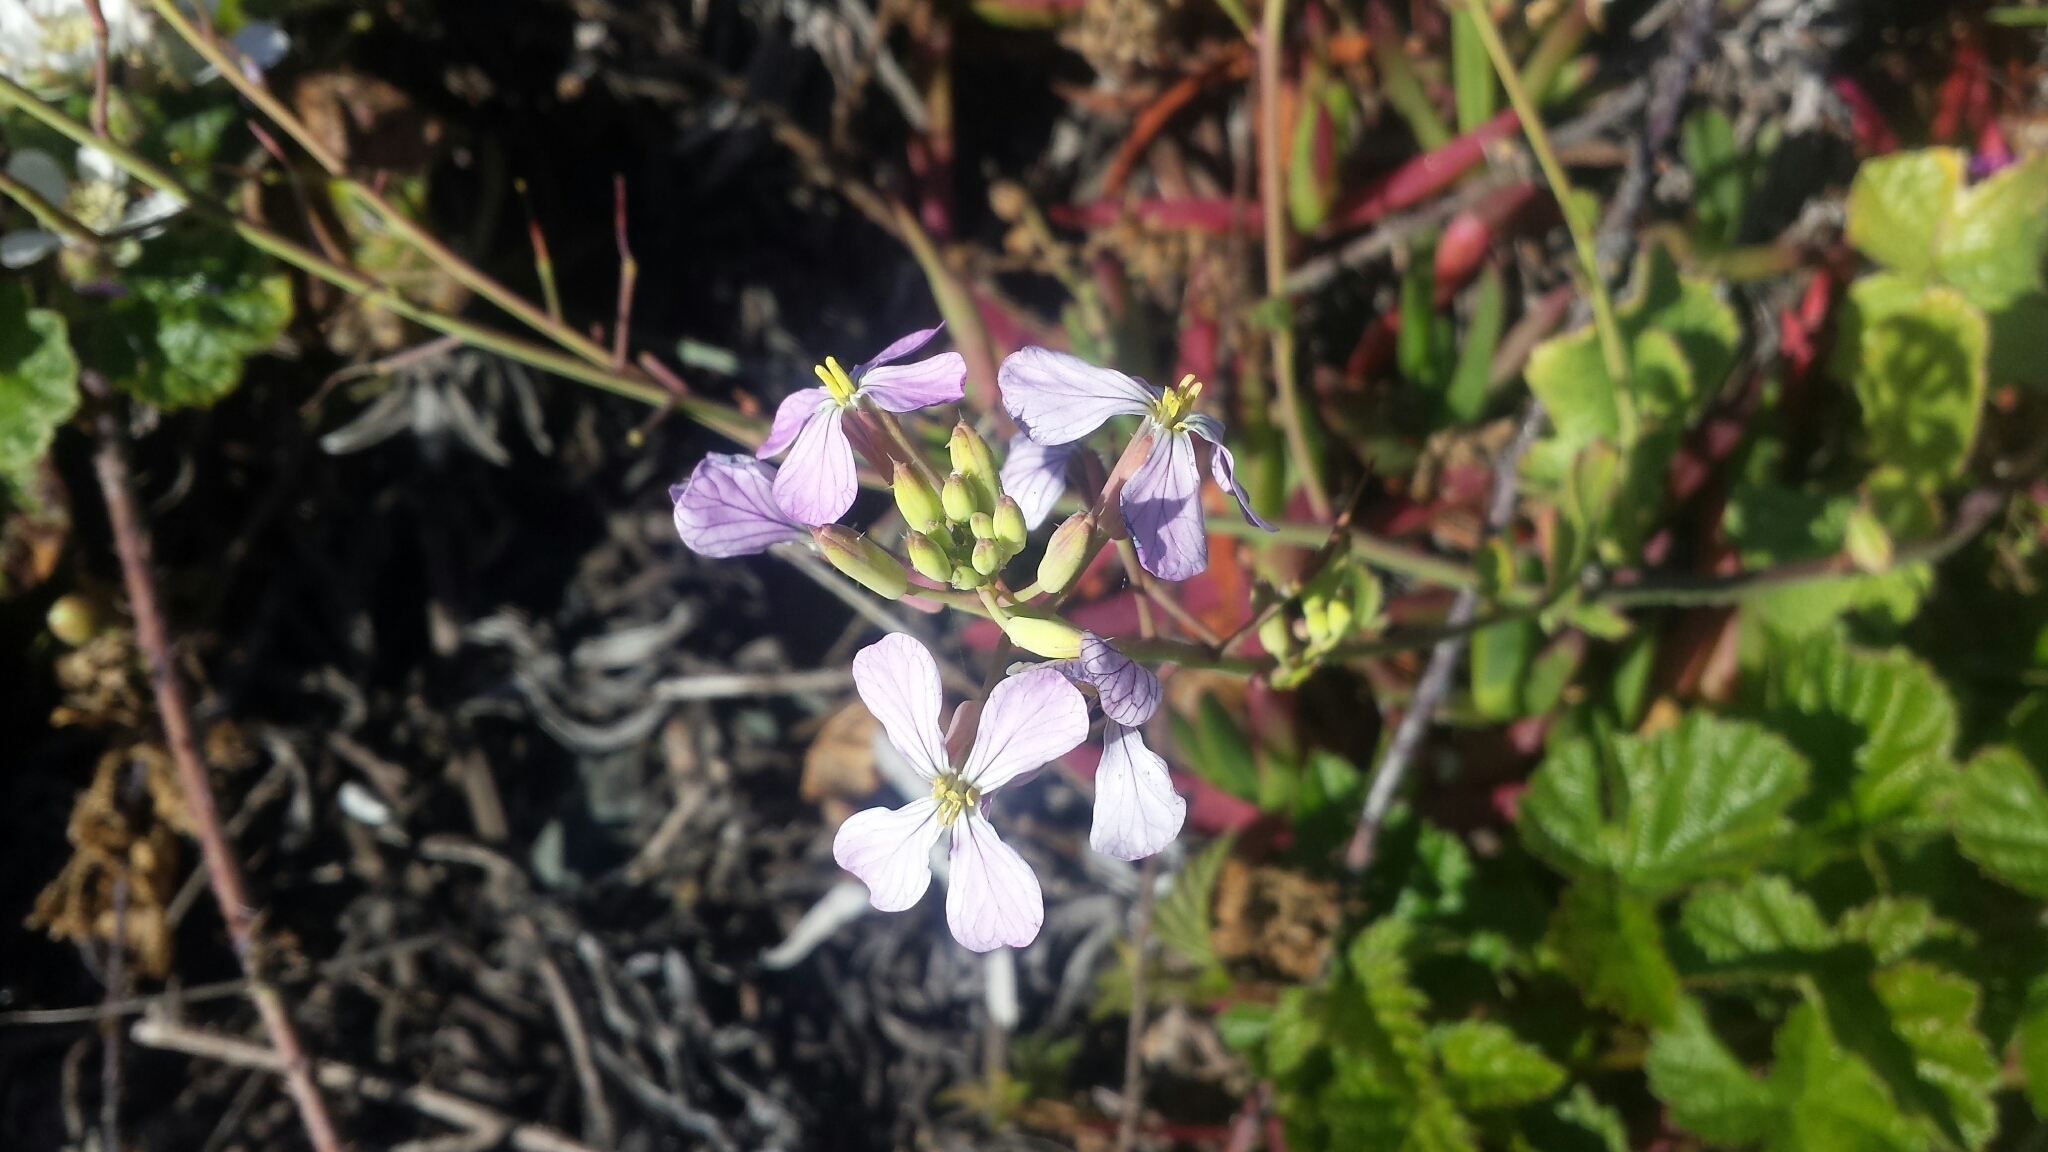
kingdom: Plantae
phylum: Tracheophyta
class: Magnoliopsida
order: Brassicales
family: Brassicaceae
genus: Raphanus
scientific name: Raphanus sativus
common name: Cultivated radish
